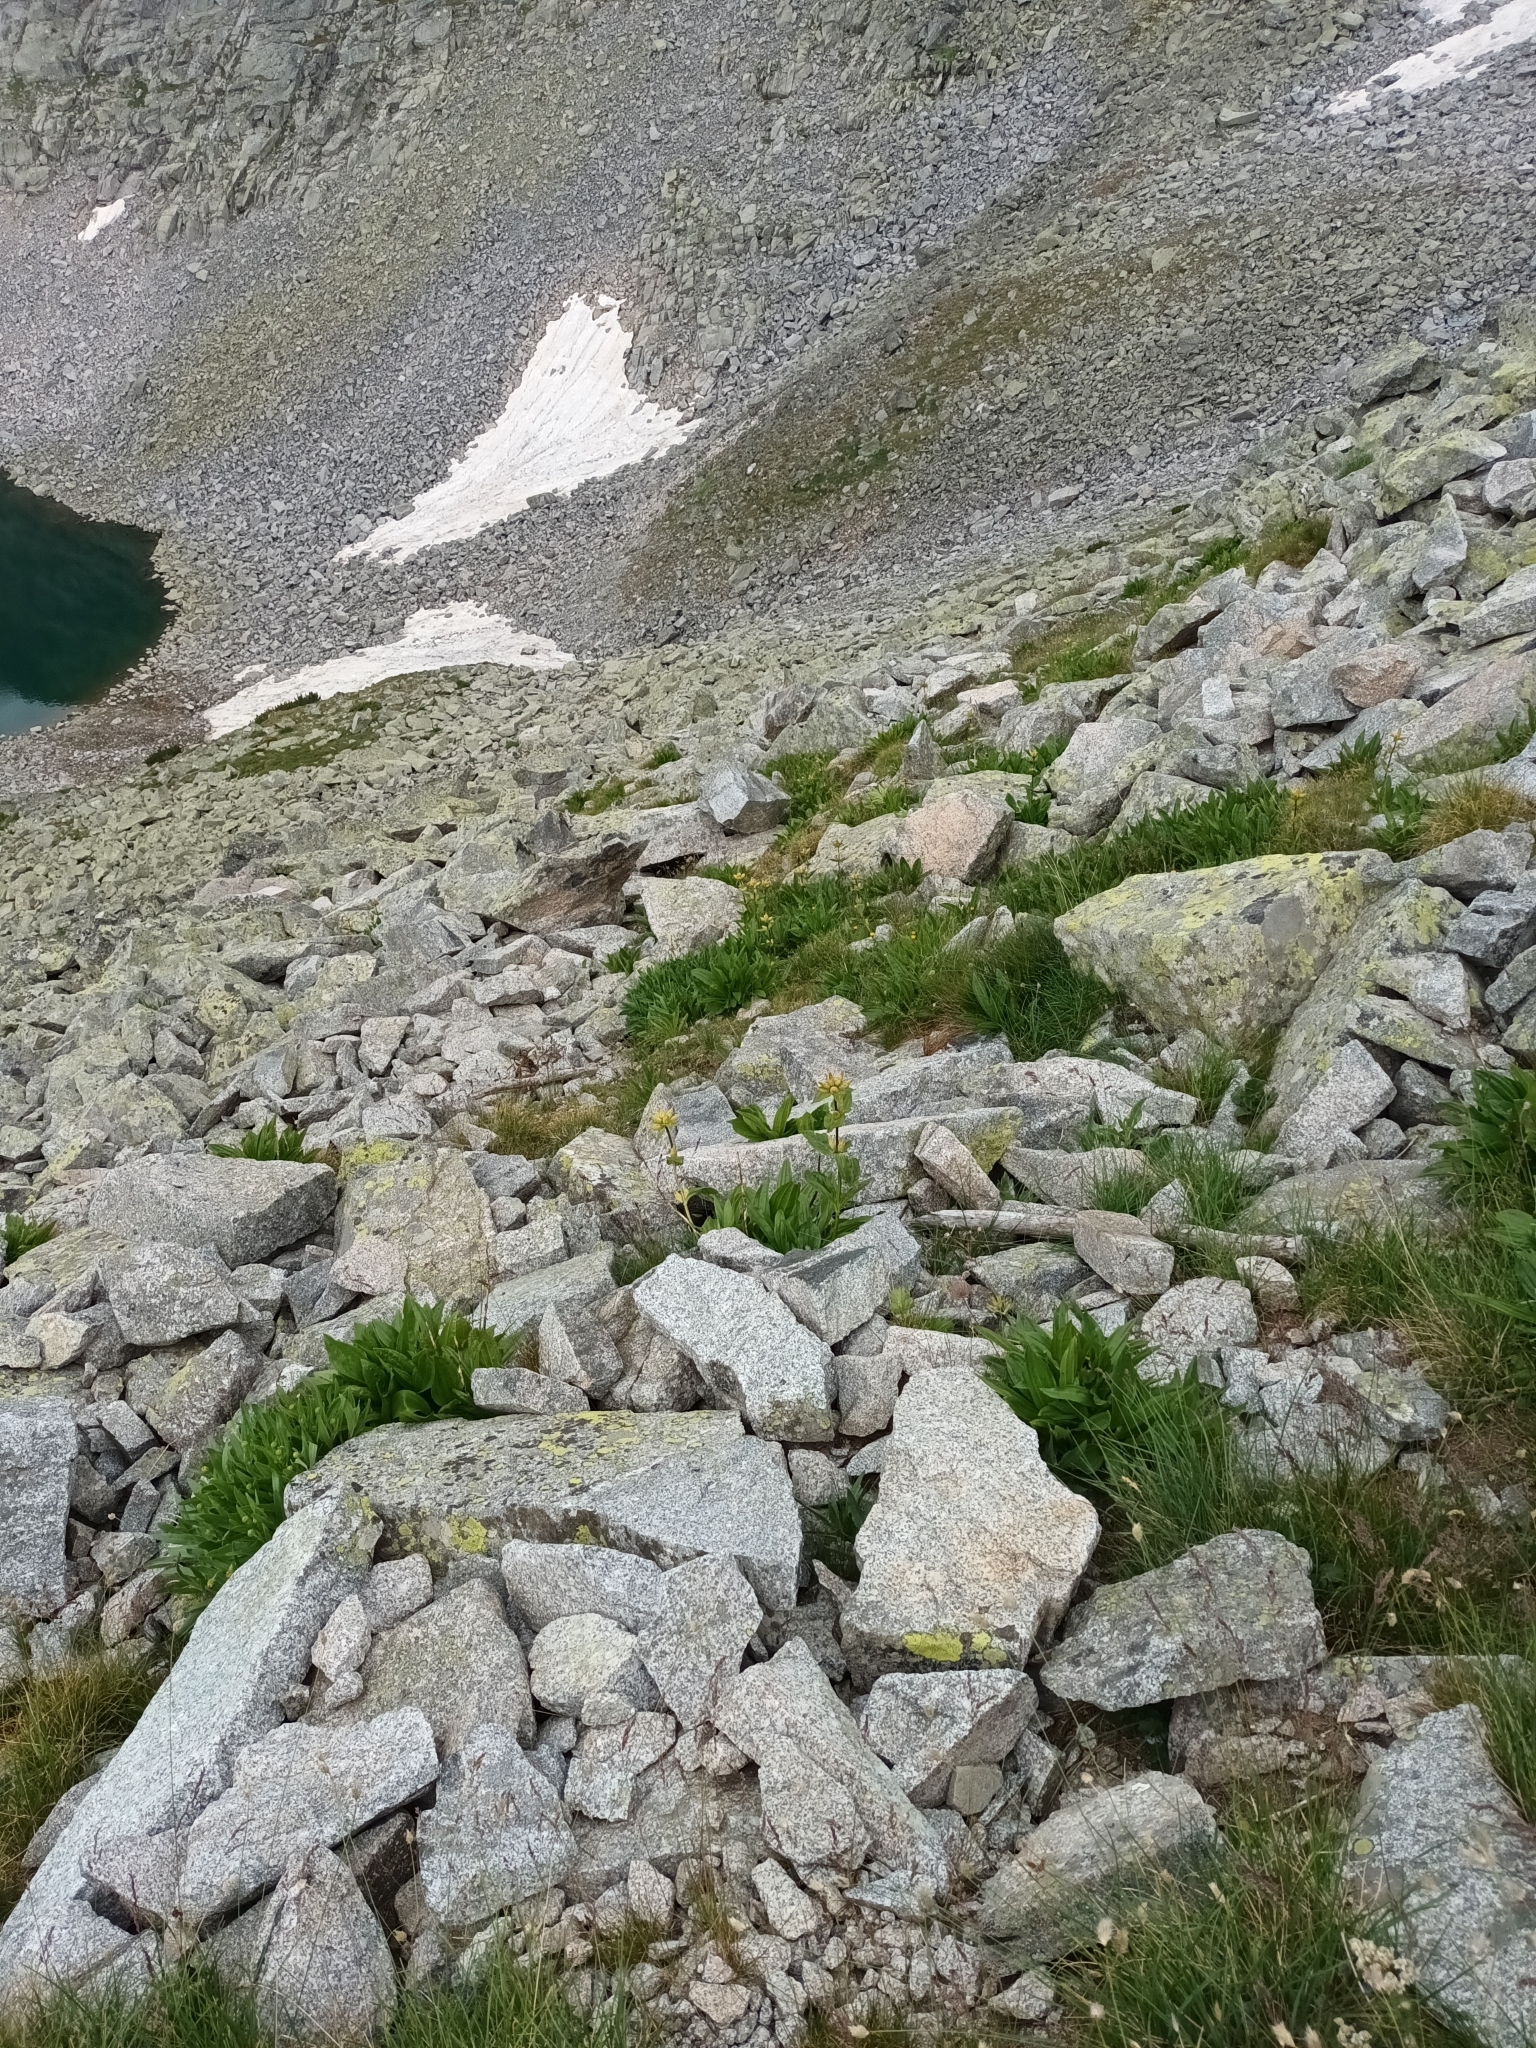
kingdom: Plantae
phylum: Tracheophyta
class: Magnoliopsida
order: Gentianales
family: Gentianaceae
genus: Gentiana
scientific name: Gentiana punctata
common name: Spotted gentian
